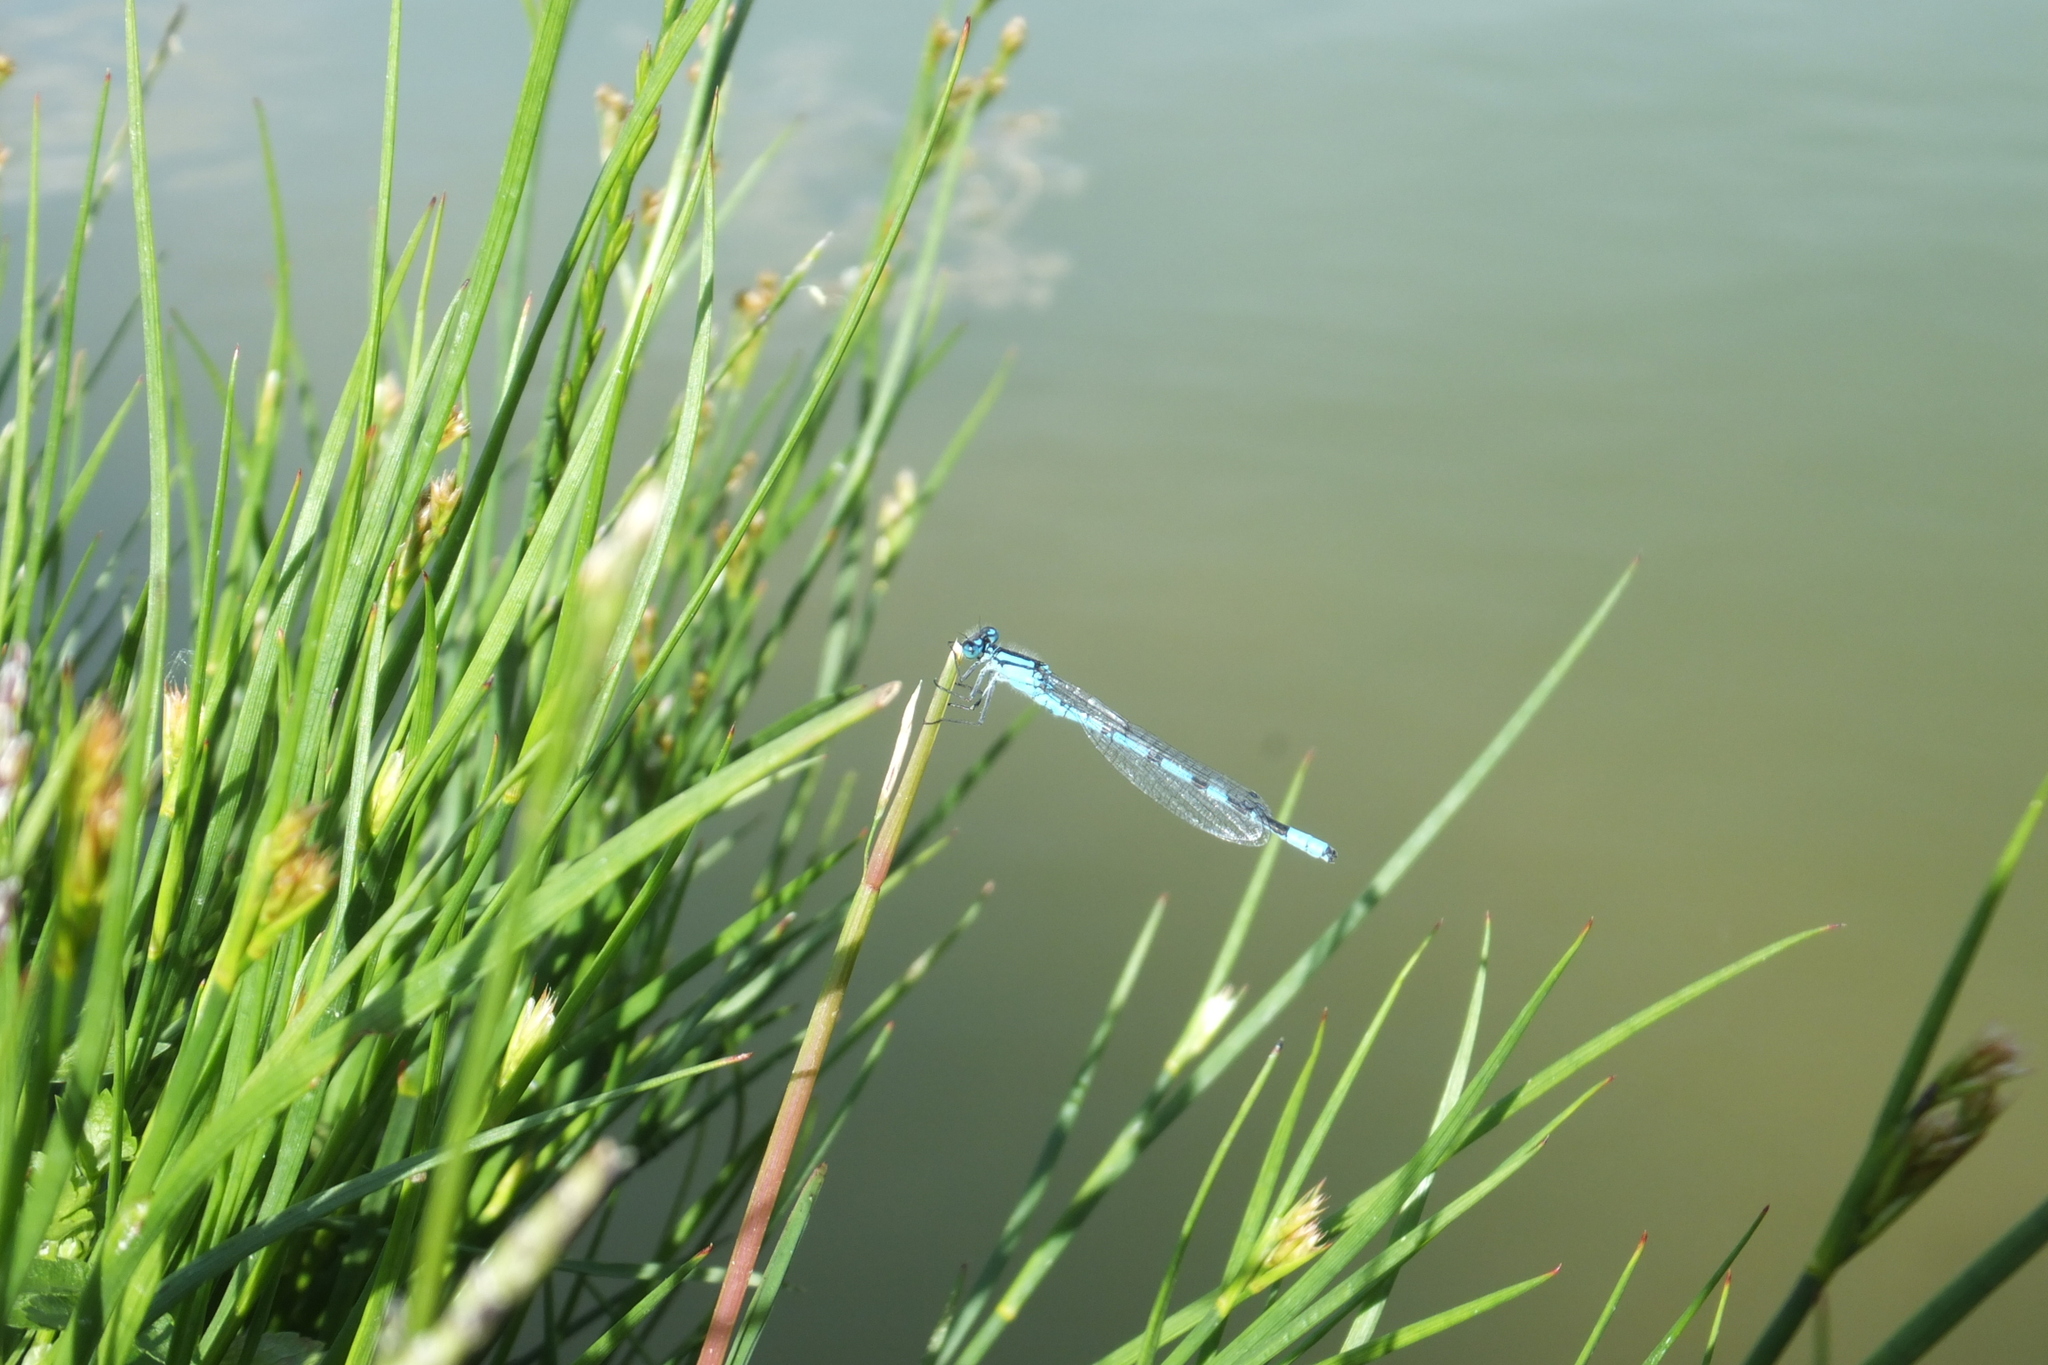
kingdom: Animalia
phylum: Arthropoda
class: Insecta
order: Odonata
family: Coenagrionidae
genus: Enallagma
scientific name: Enallagma cyathigerum
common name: Common blue damselfly
